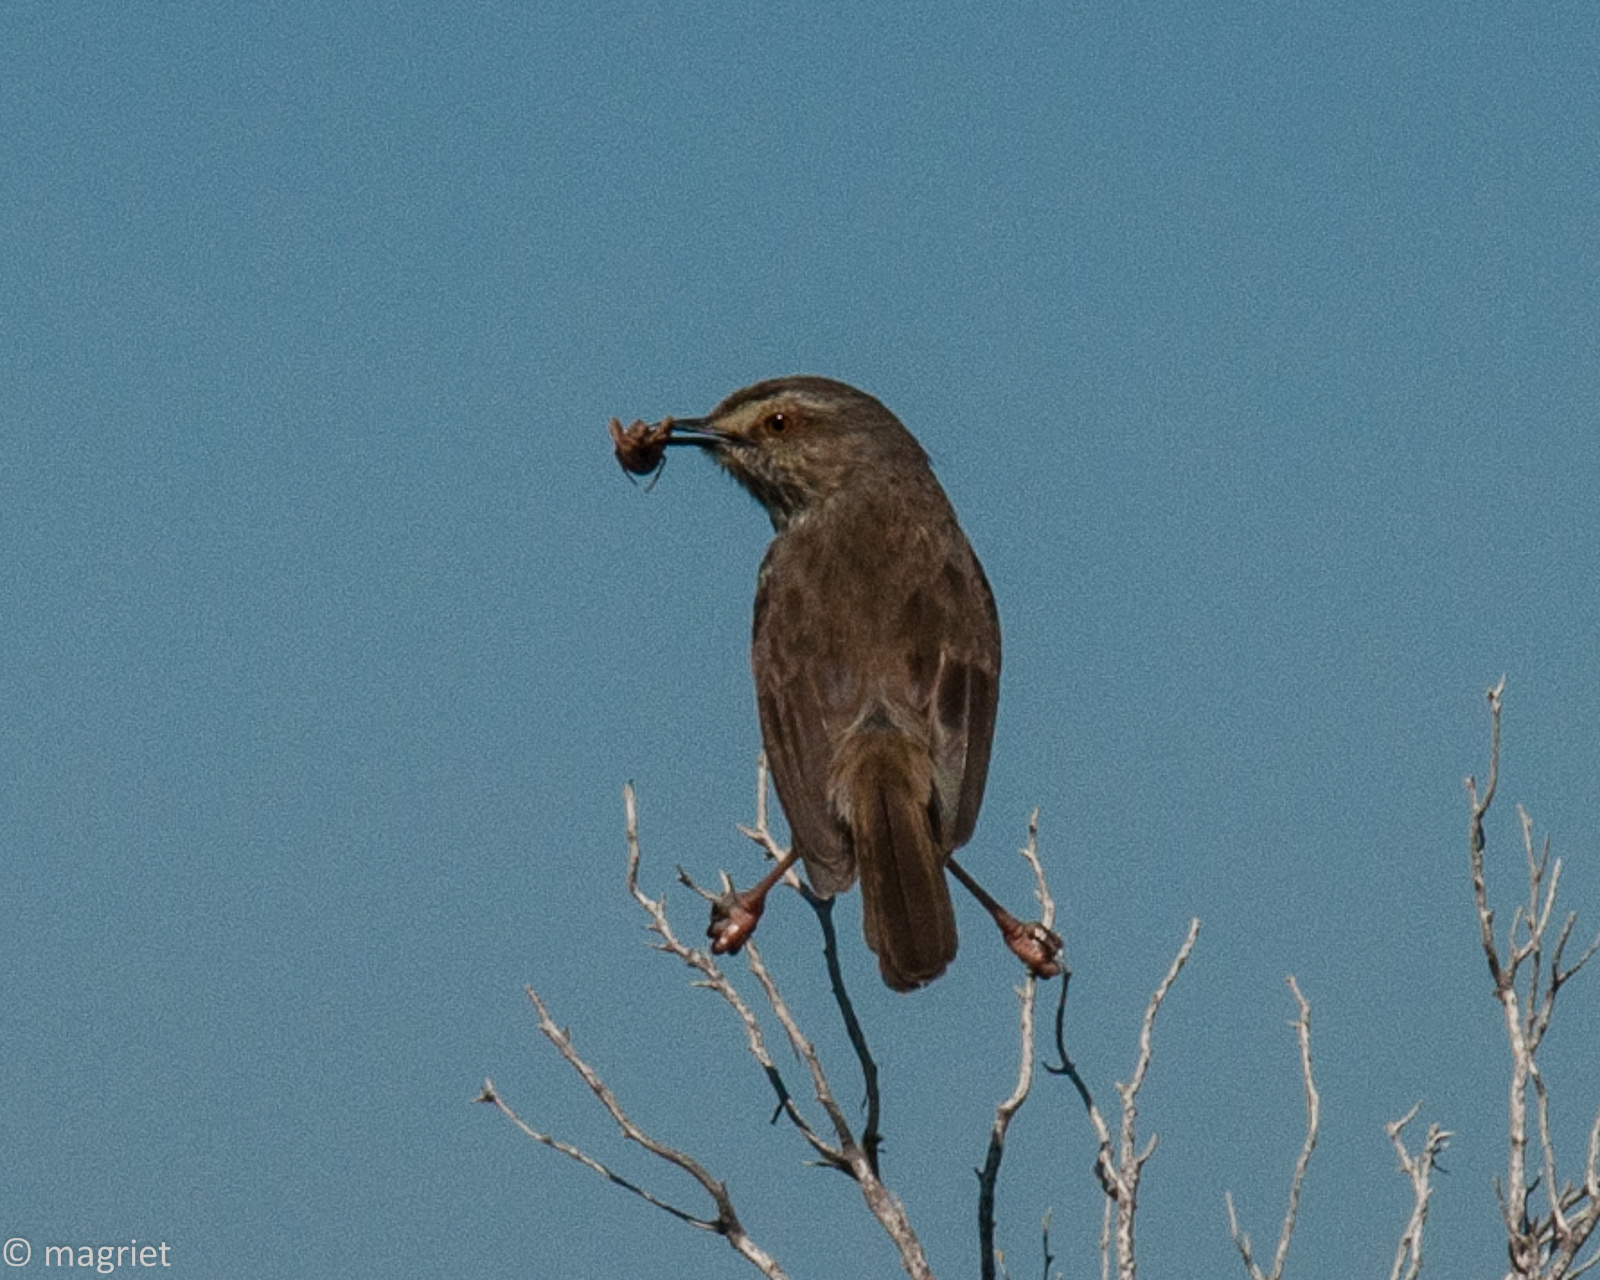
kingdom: Animalia
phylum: Chordata
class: Aves
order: Passeriformes
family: Cisticolidae
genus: Prinia
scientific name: Prinia maculosa
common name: Karoo prinia
